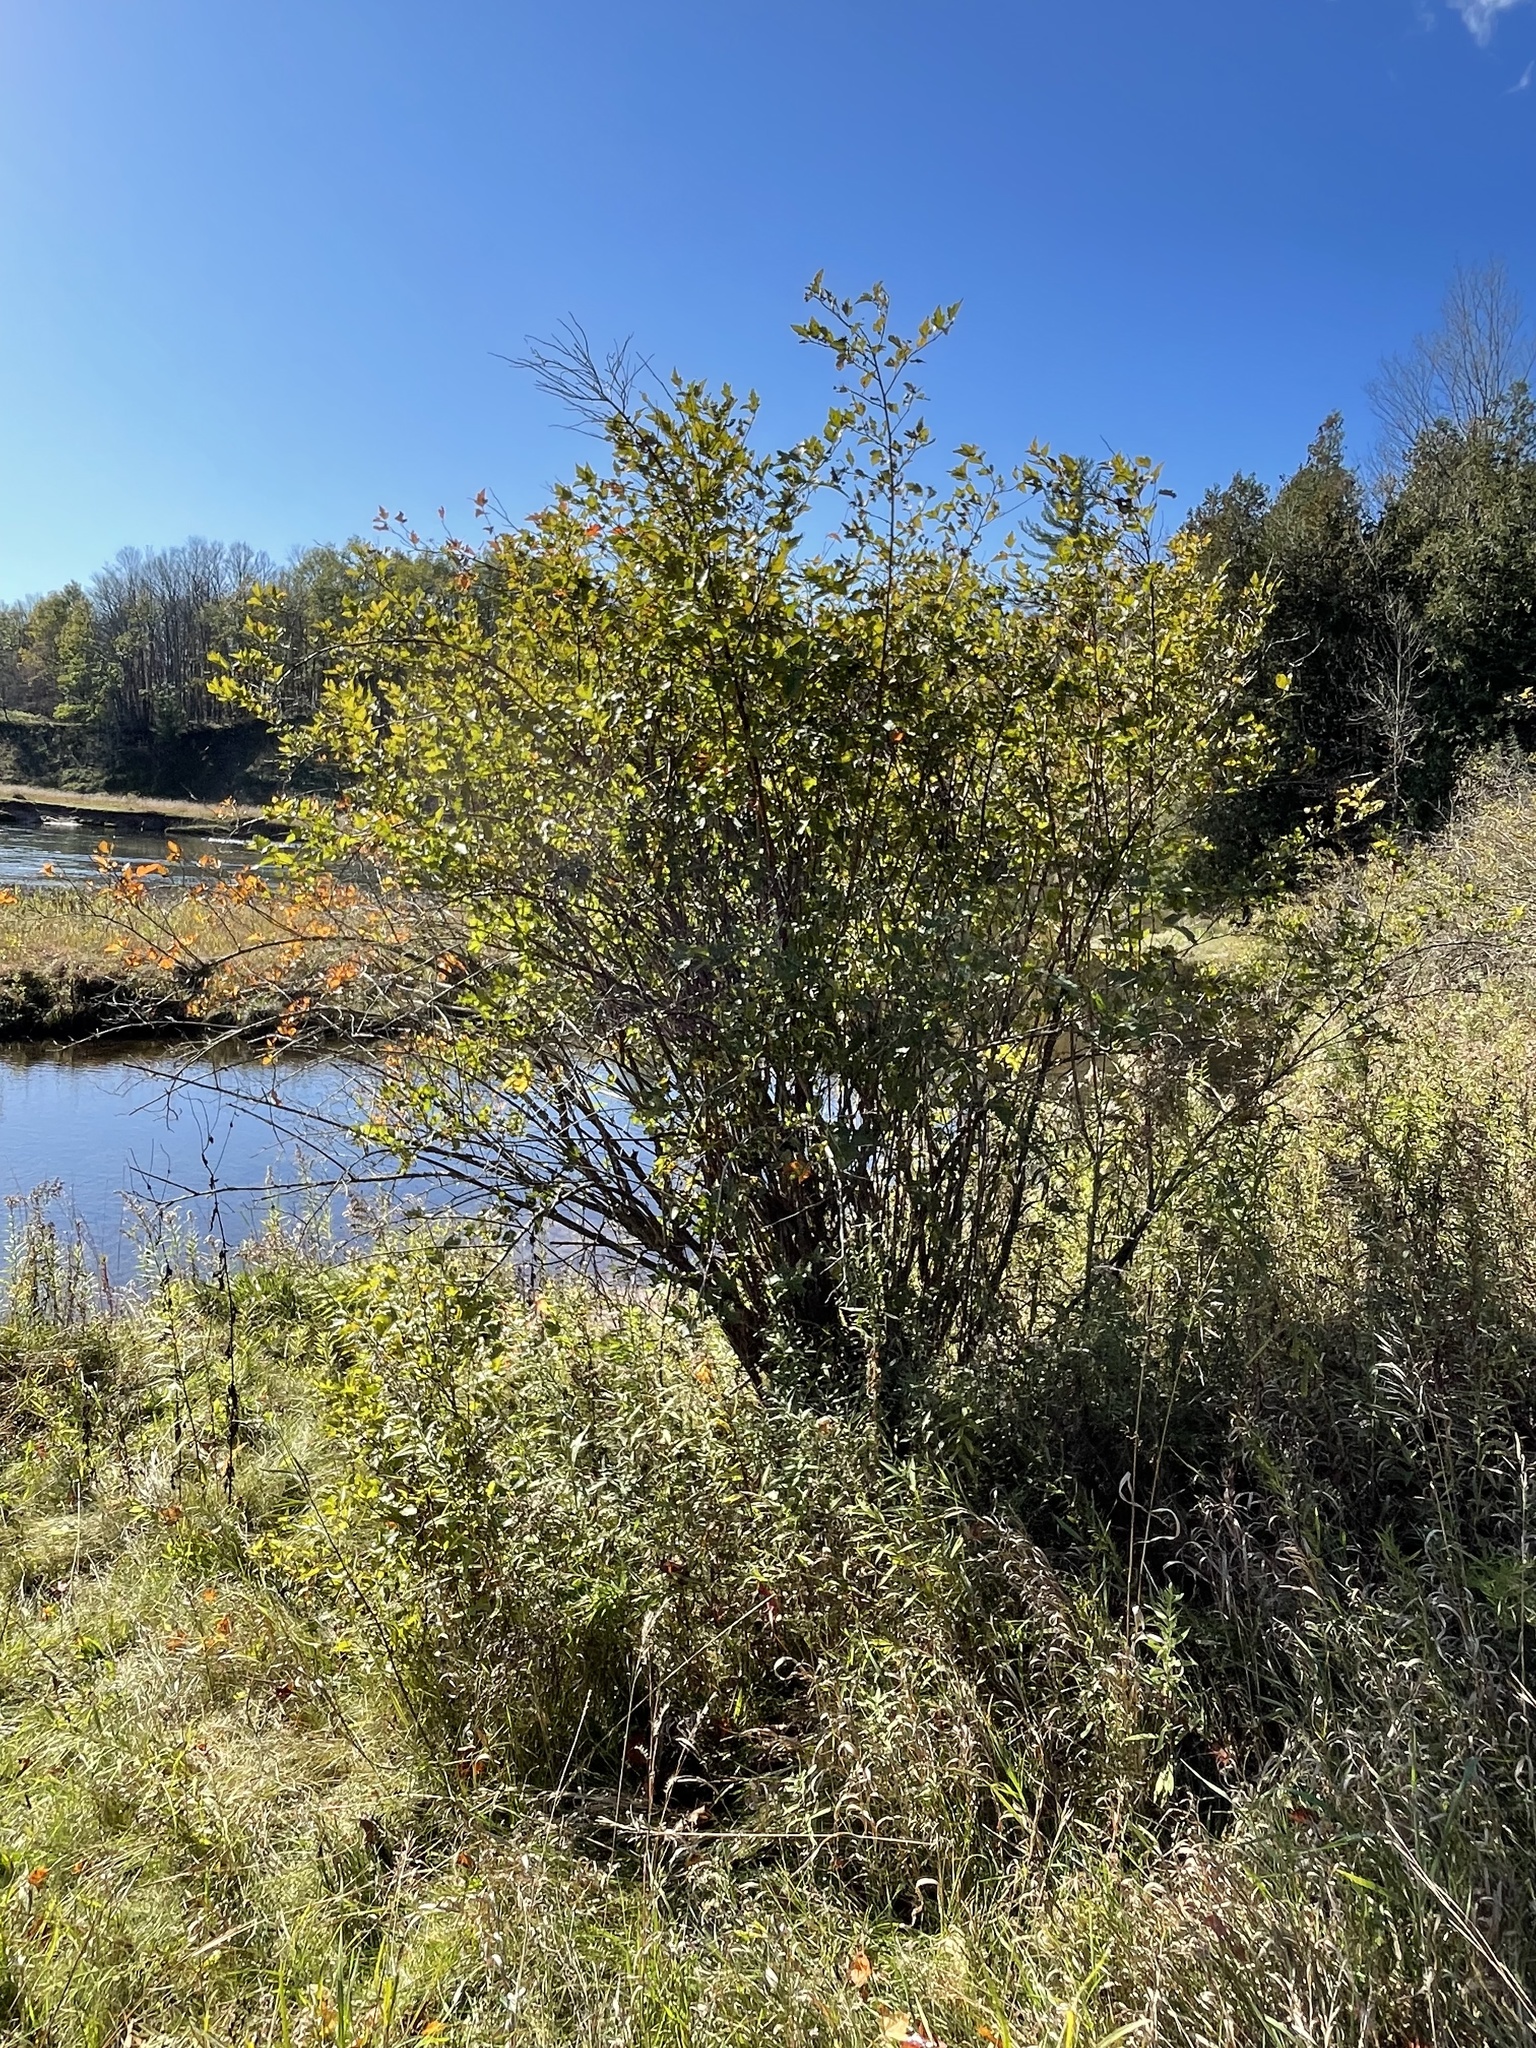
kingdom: Plantae
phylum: Tracheophyta
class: Magnoliopsida
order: Rosales
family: Rosaceae
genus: Physocarpus
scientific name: Physocarpus opulifolius
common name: Ninebark
